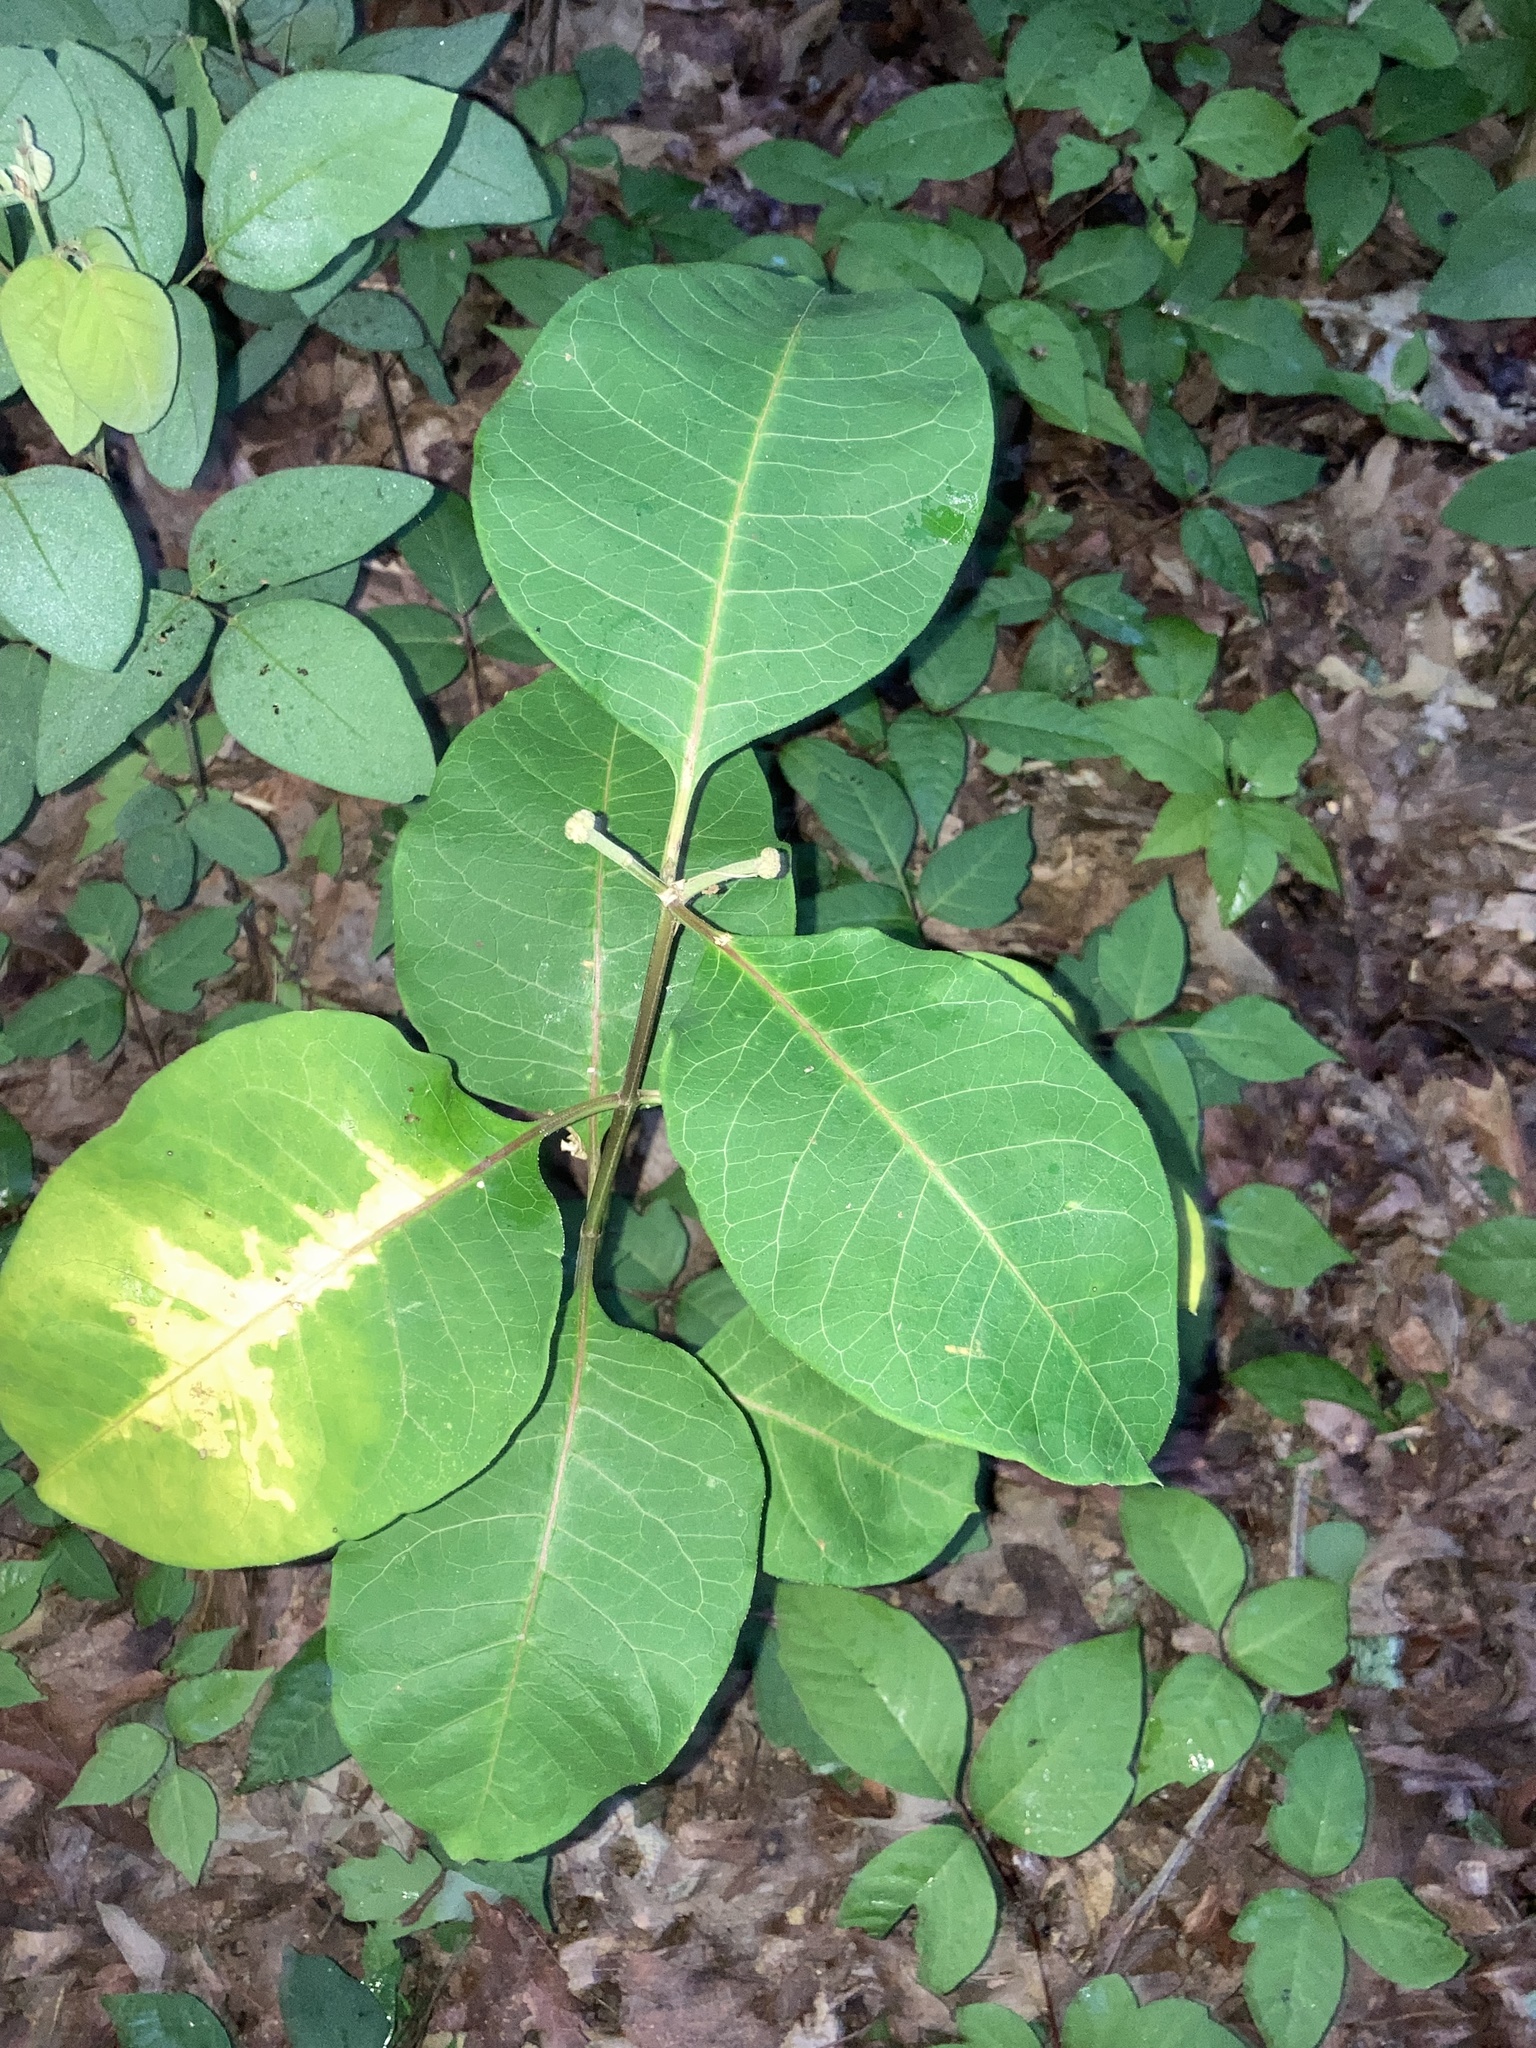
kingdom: Plantae
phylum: Tracheophyta
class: Magnoliopsida
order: Gentianales
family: Apocynaceae
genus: Asclepias
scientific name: Asclepias variegata
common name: Variegated milkweed
